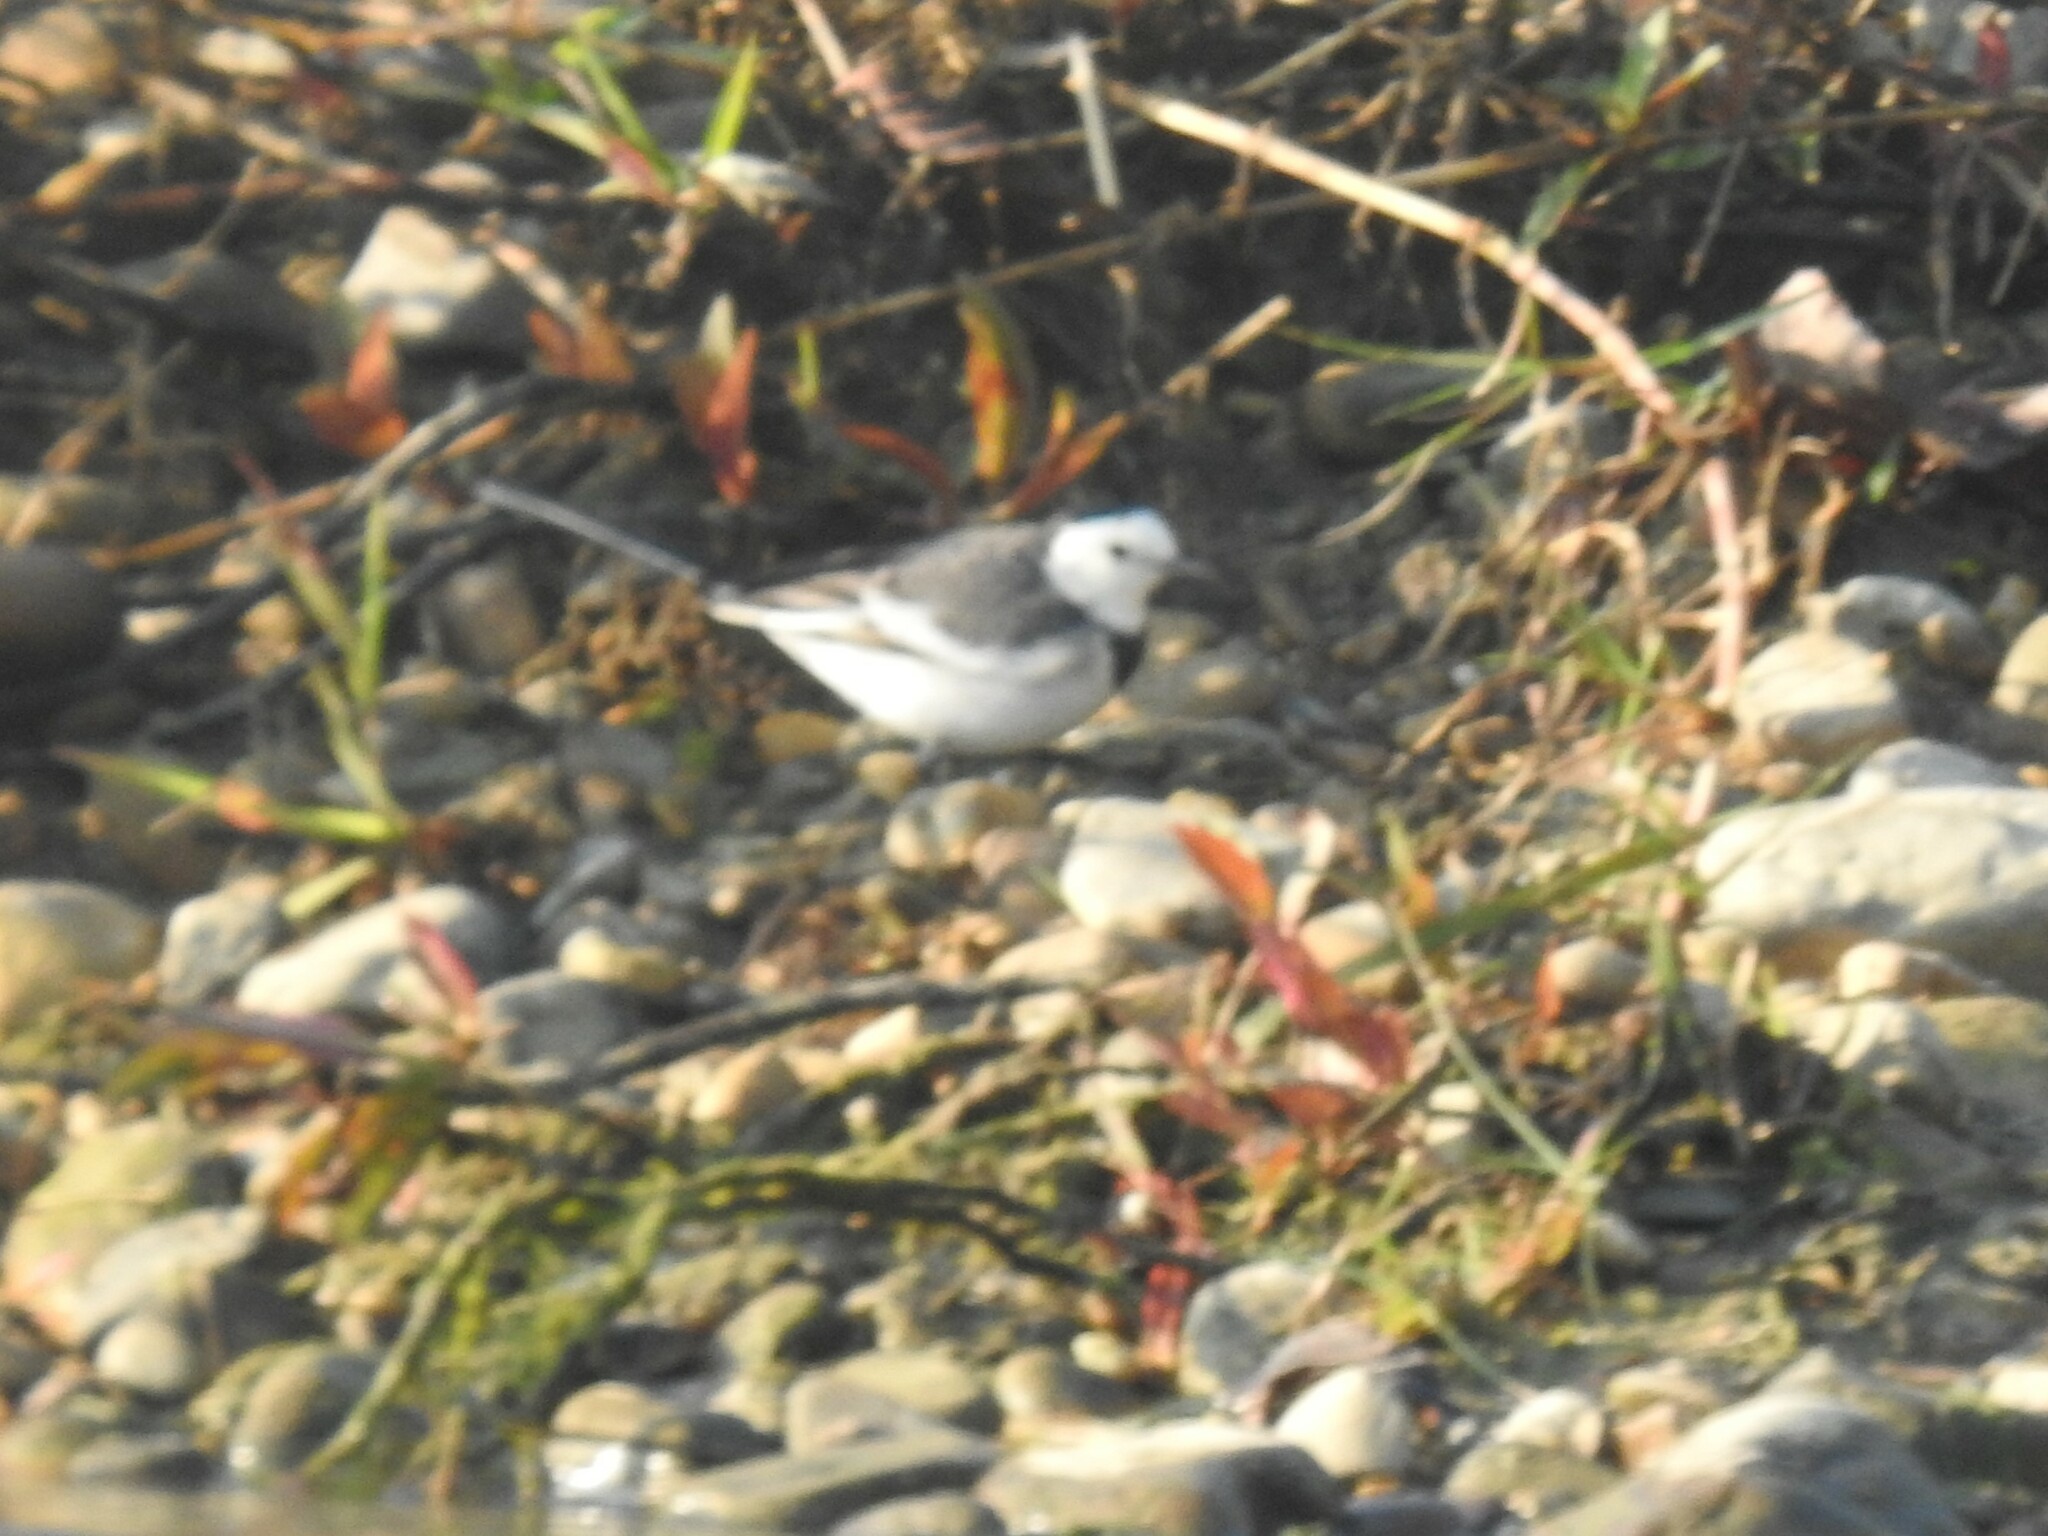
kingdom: Animalia
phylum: Chordata
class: Aves
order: Passeriformes
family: Motacillidae
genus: Motacilla
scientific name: Motacilla alba
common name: White wagtail
